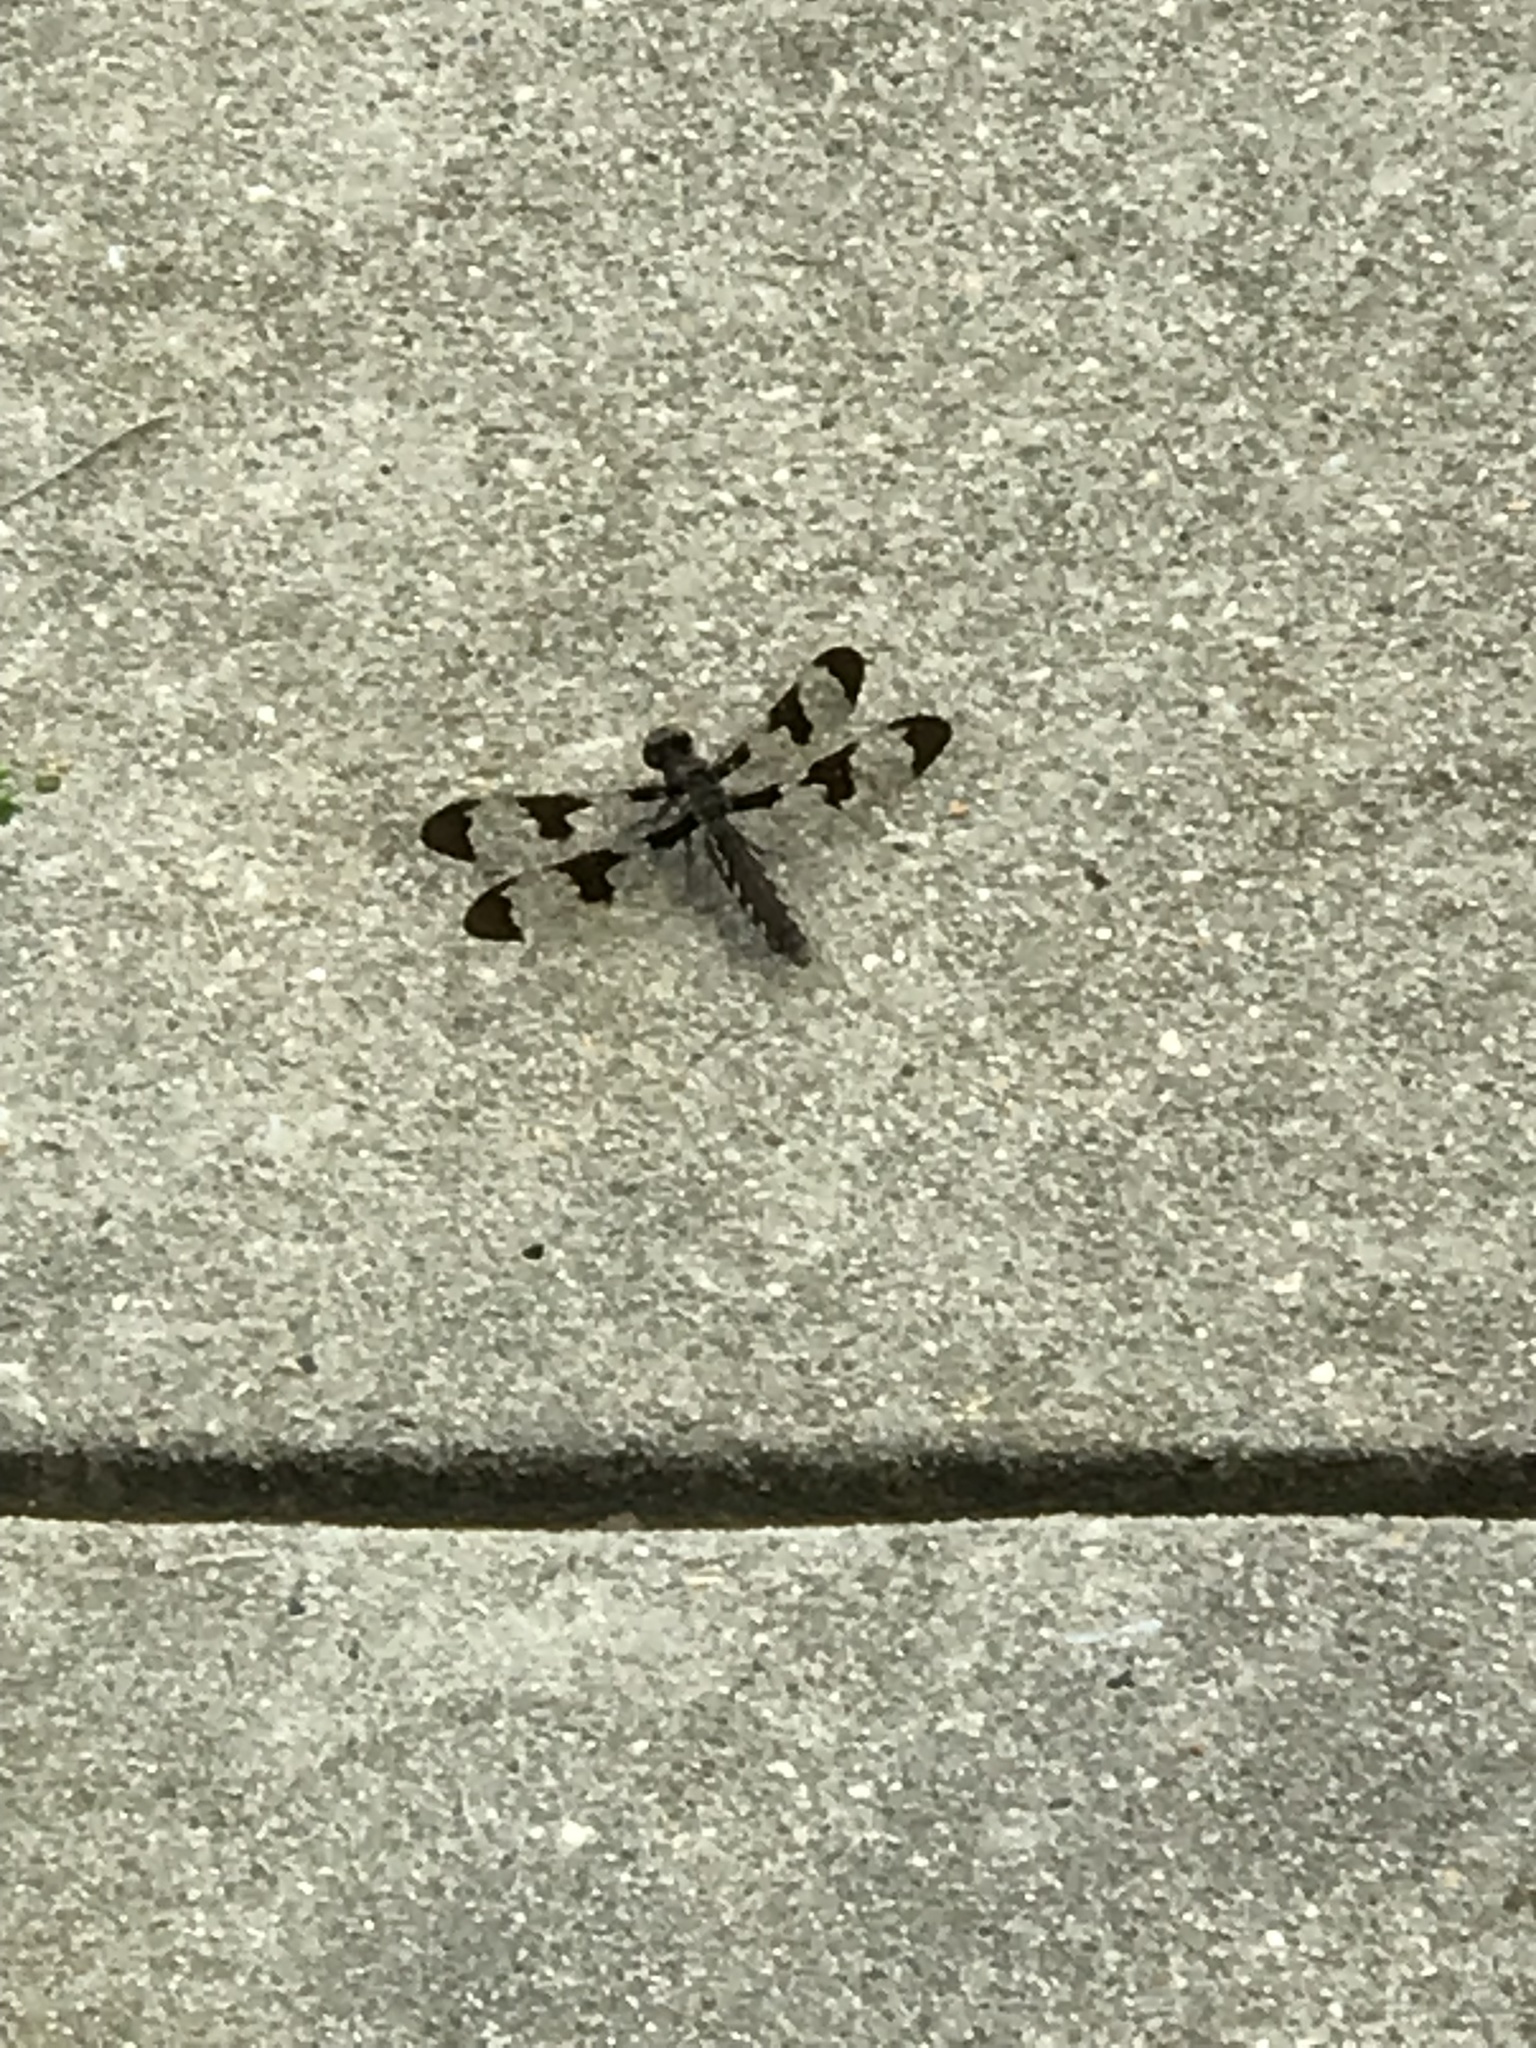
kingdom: Animalia
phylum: Arthropoda
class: Insecta
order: Odonata
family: Libellulidae
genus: Plathemis
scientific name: Plathemis lydia
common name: Common whitetail
